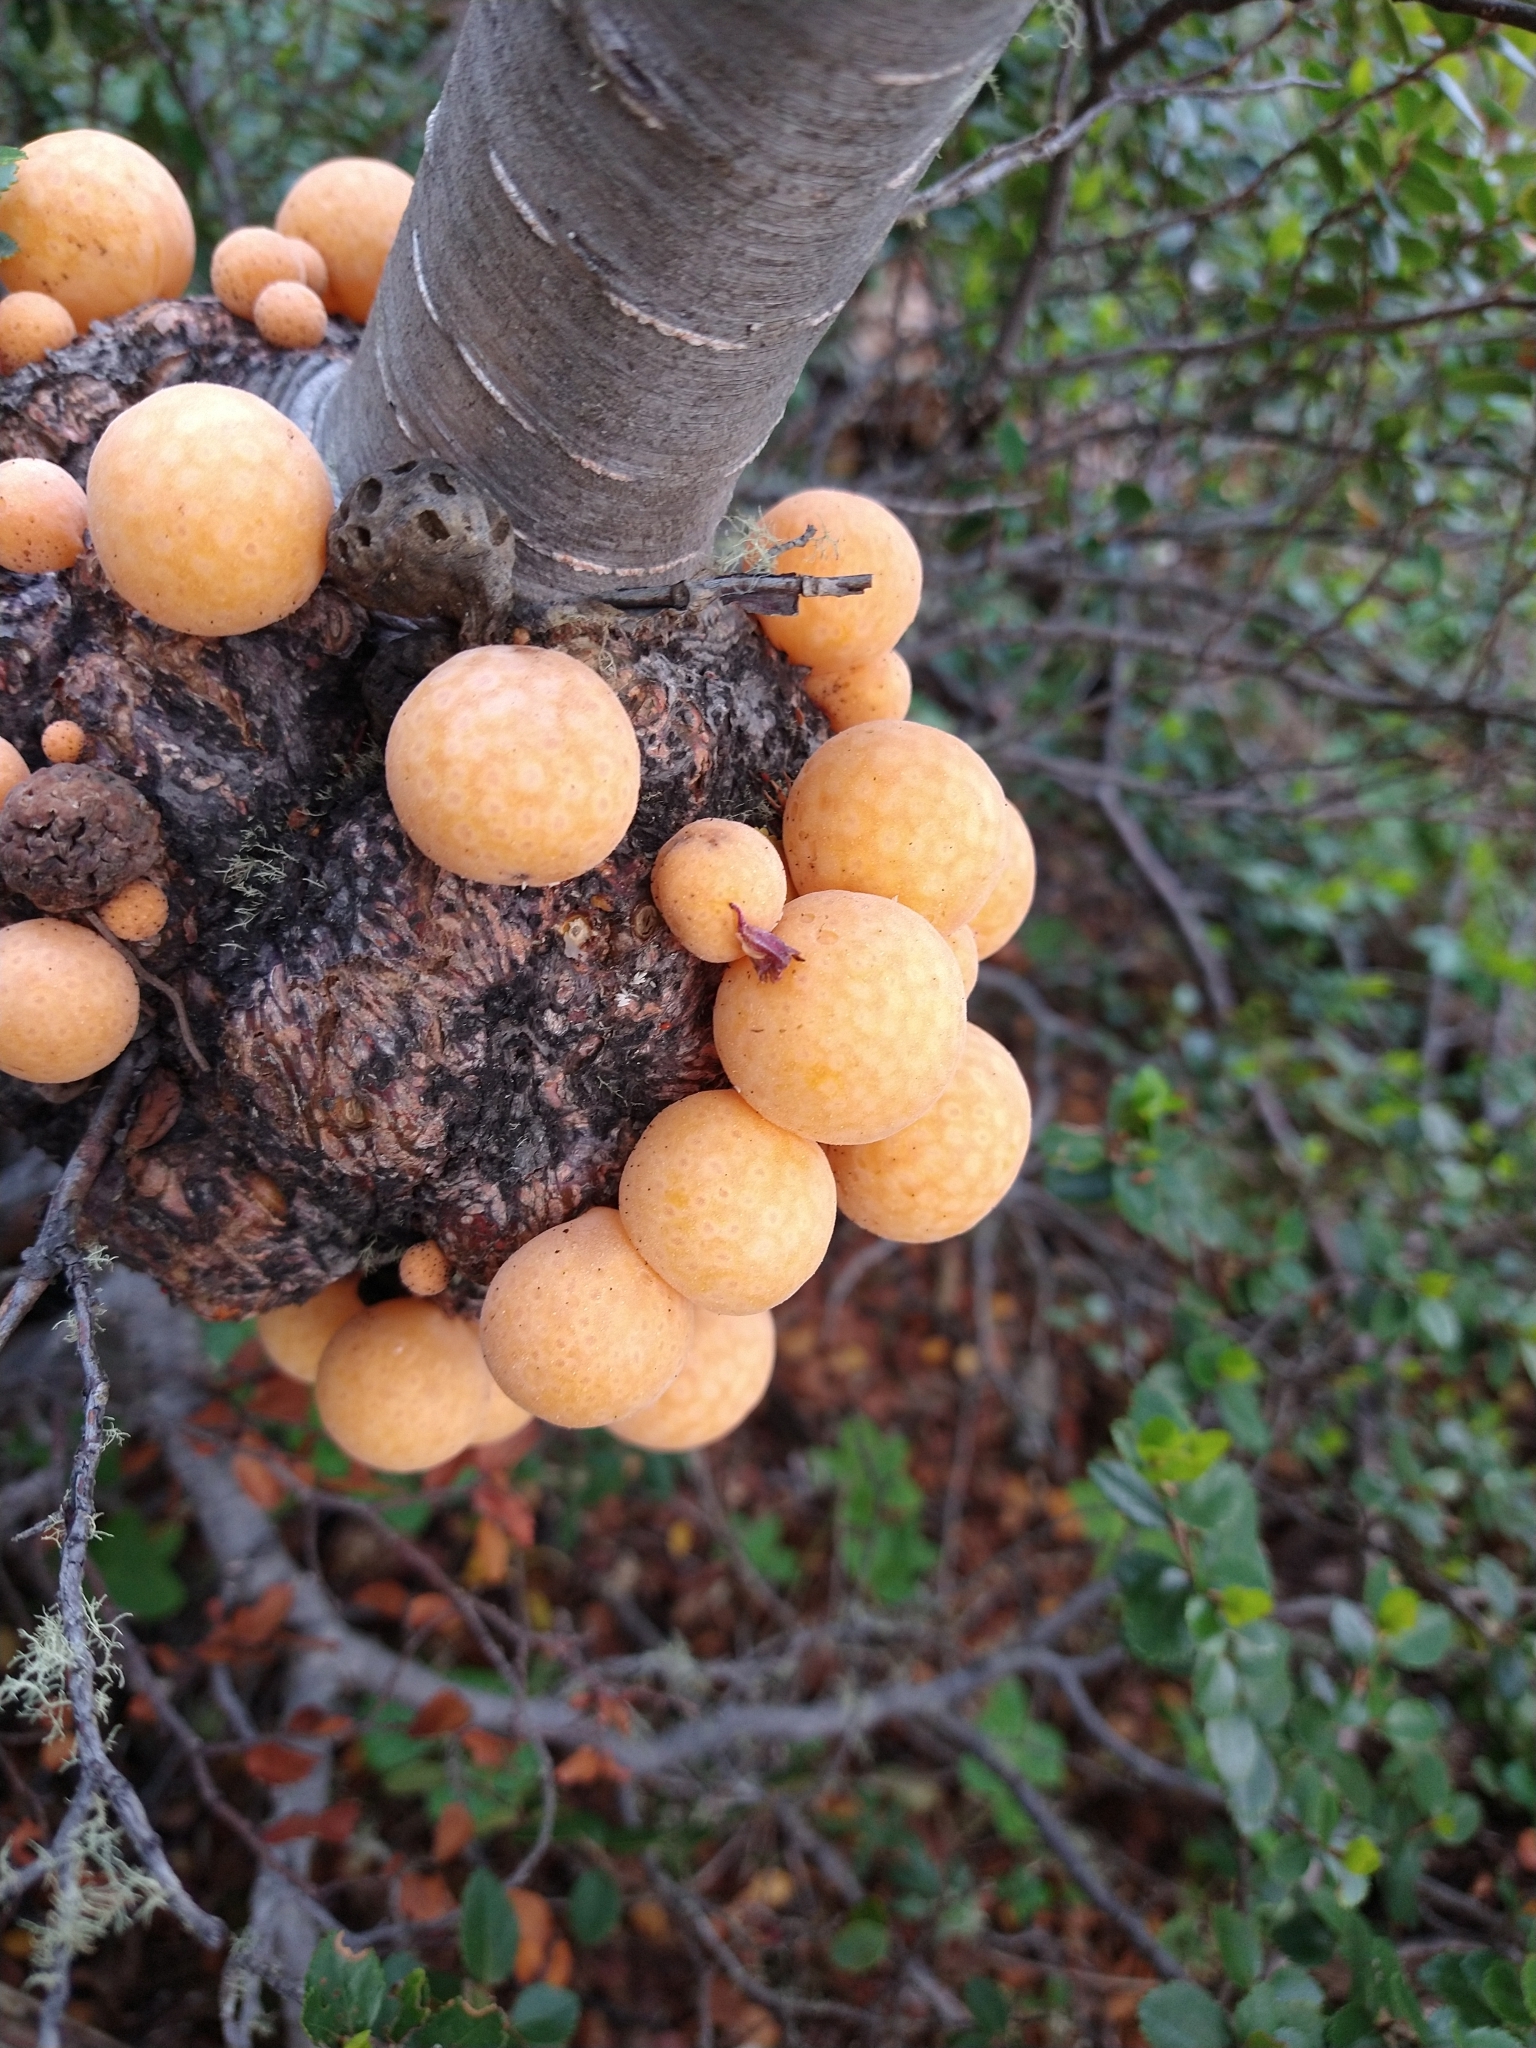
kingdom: Fungi
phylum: Ascomycota
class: Leotiomycetes
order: Cyttariales
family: Cyttariaceae
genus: Cyttaria
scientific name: Cyttaria hariotii
